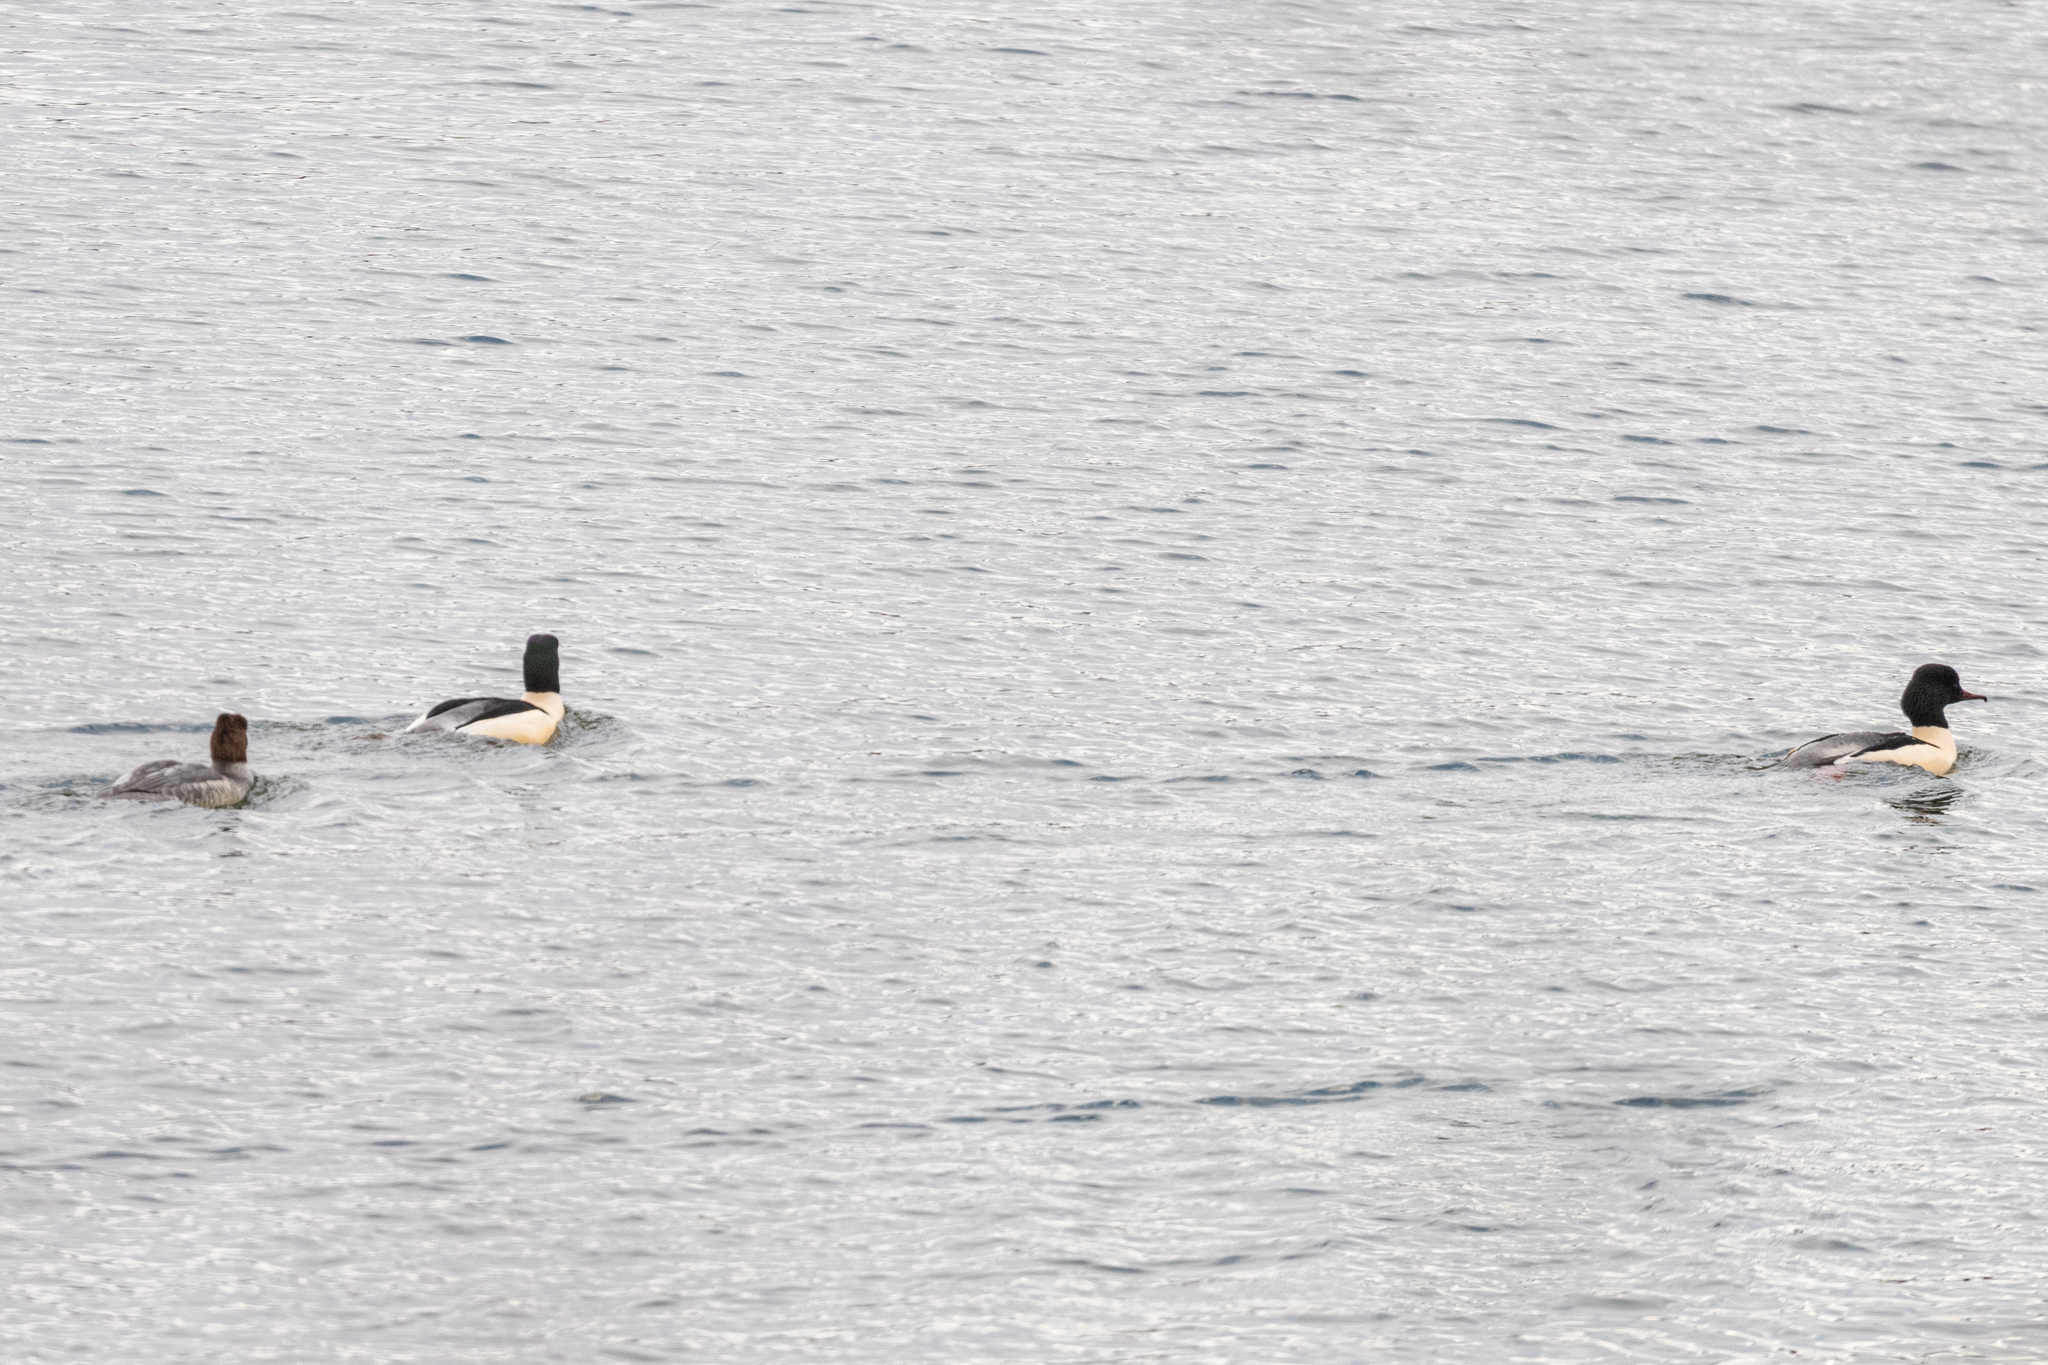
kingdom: Animalia
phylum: Chordata
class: Aves
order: Anseriformes
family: Anatidae
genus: Mergus
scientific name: Mergus merganser
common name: Common merganser
